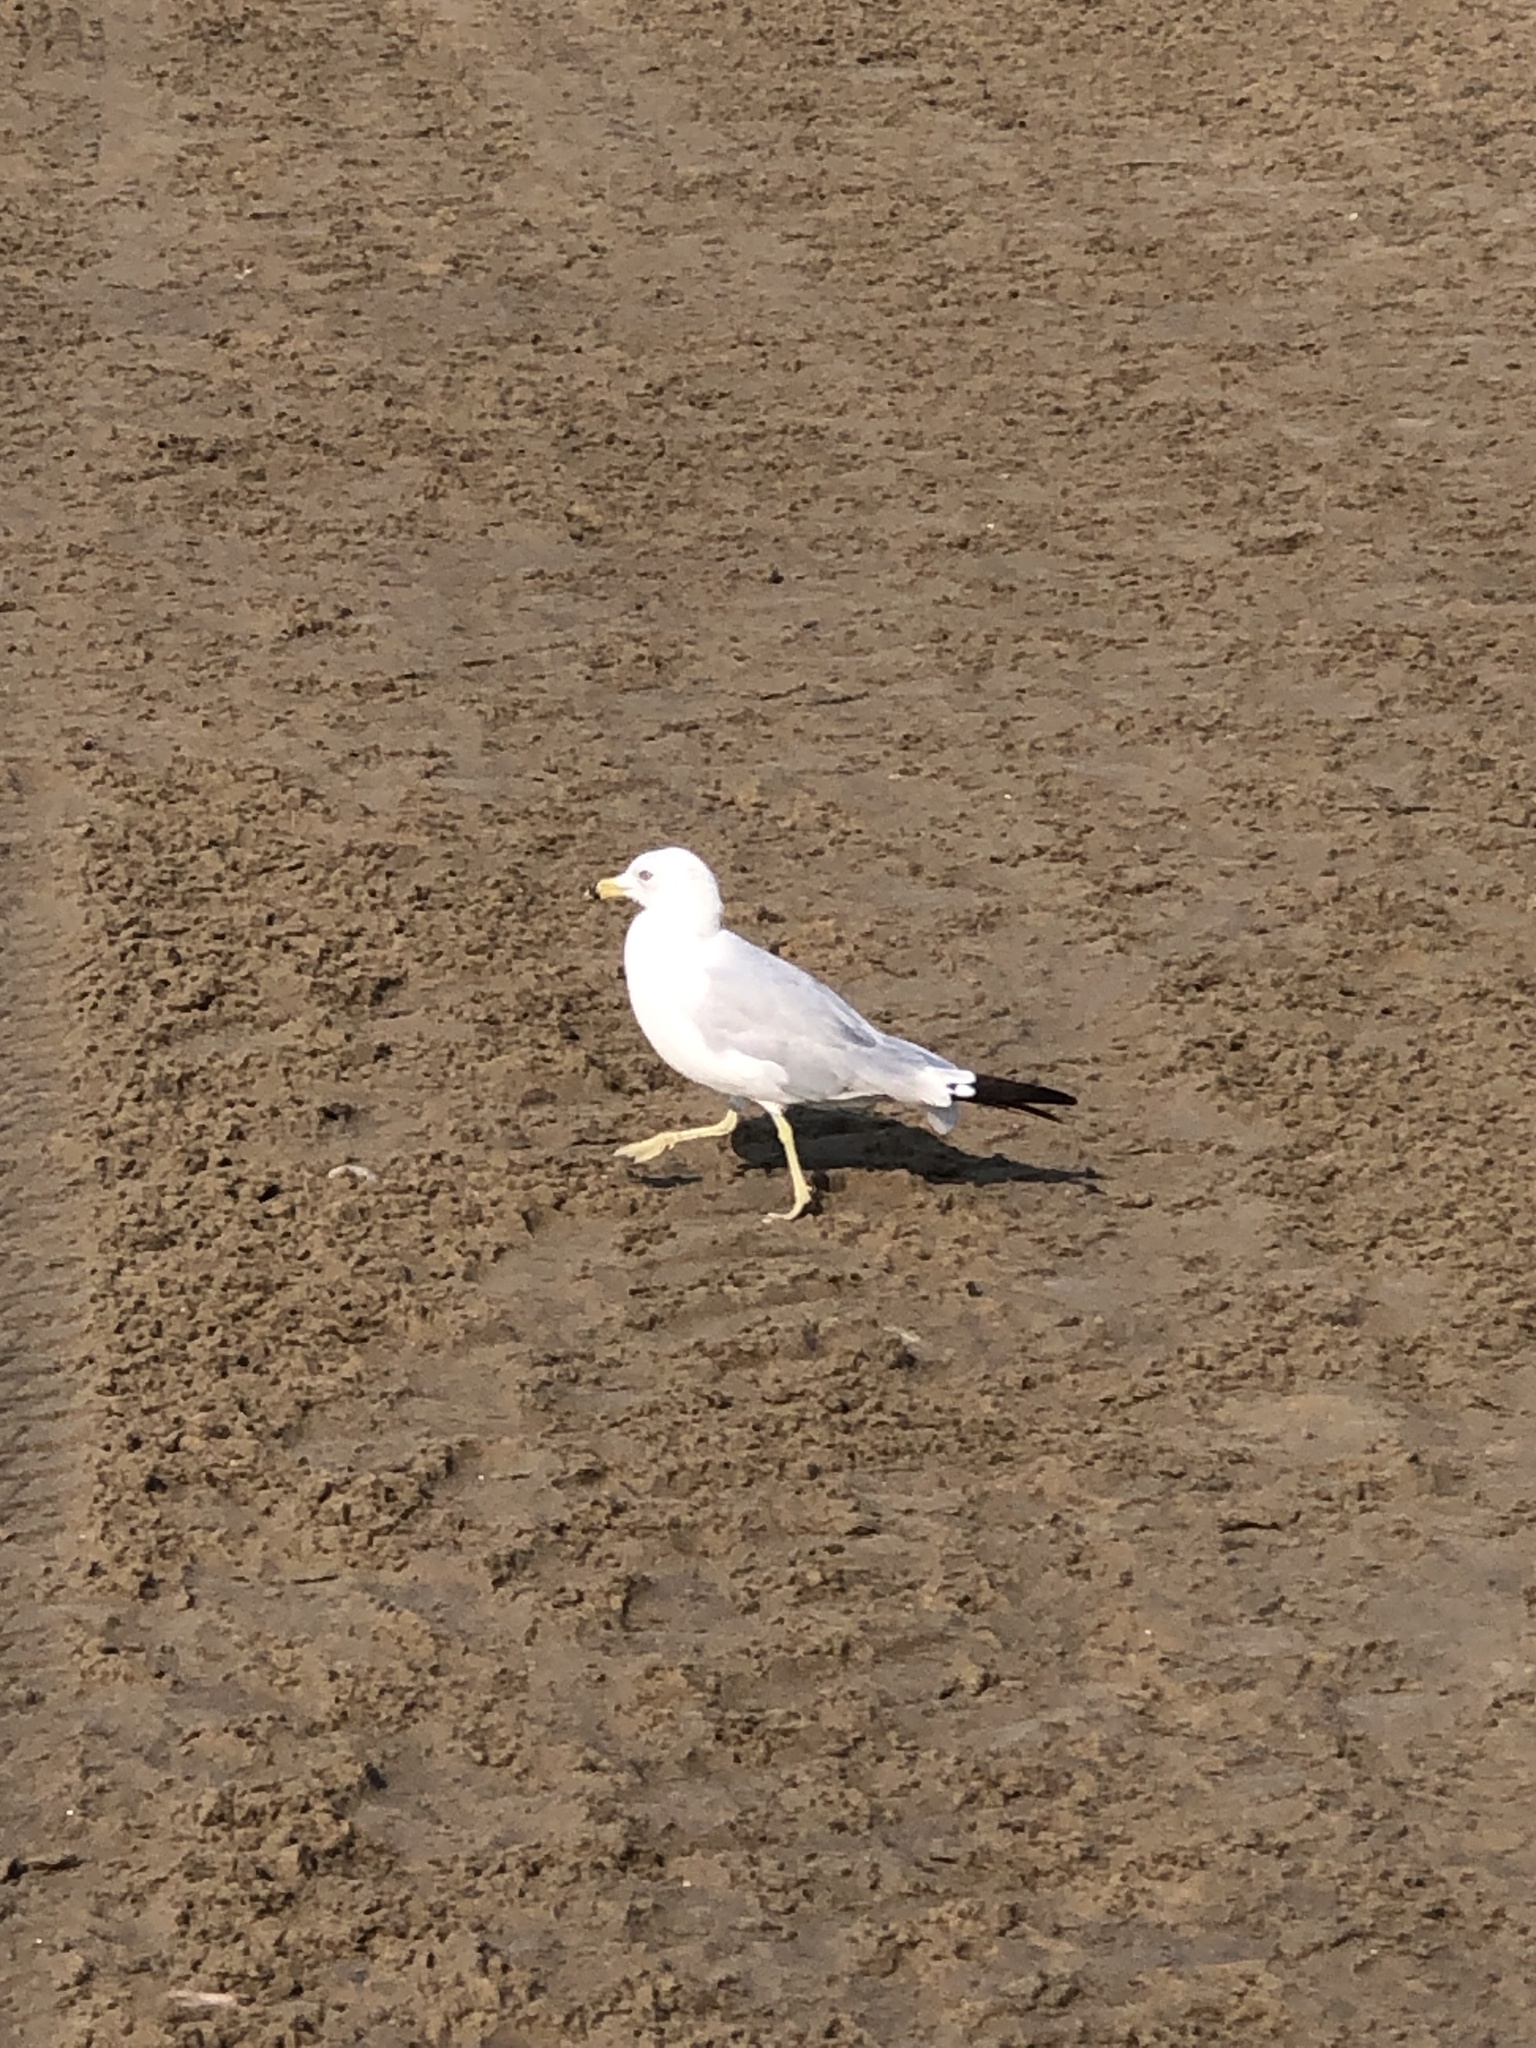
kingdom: Animalia
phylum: Chordata
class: Aves
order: Charadriiformes
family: Laridae
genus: Larus
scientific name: Larus delawarensis
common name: Ring-billed gull
